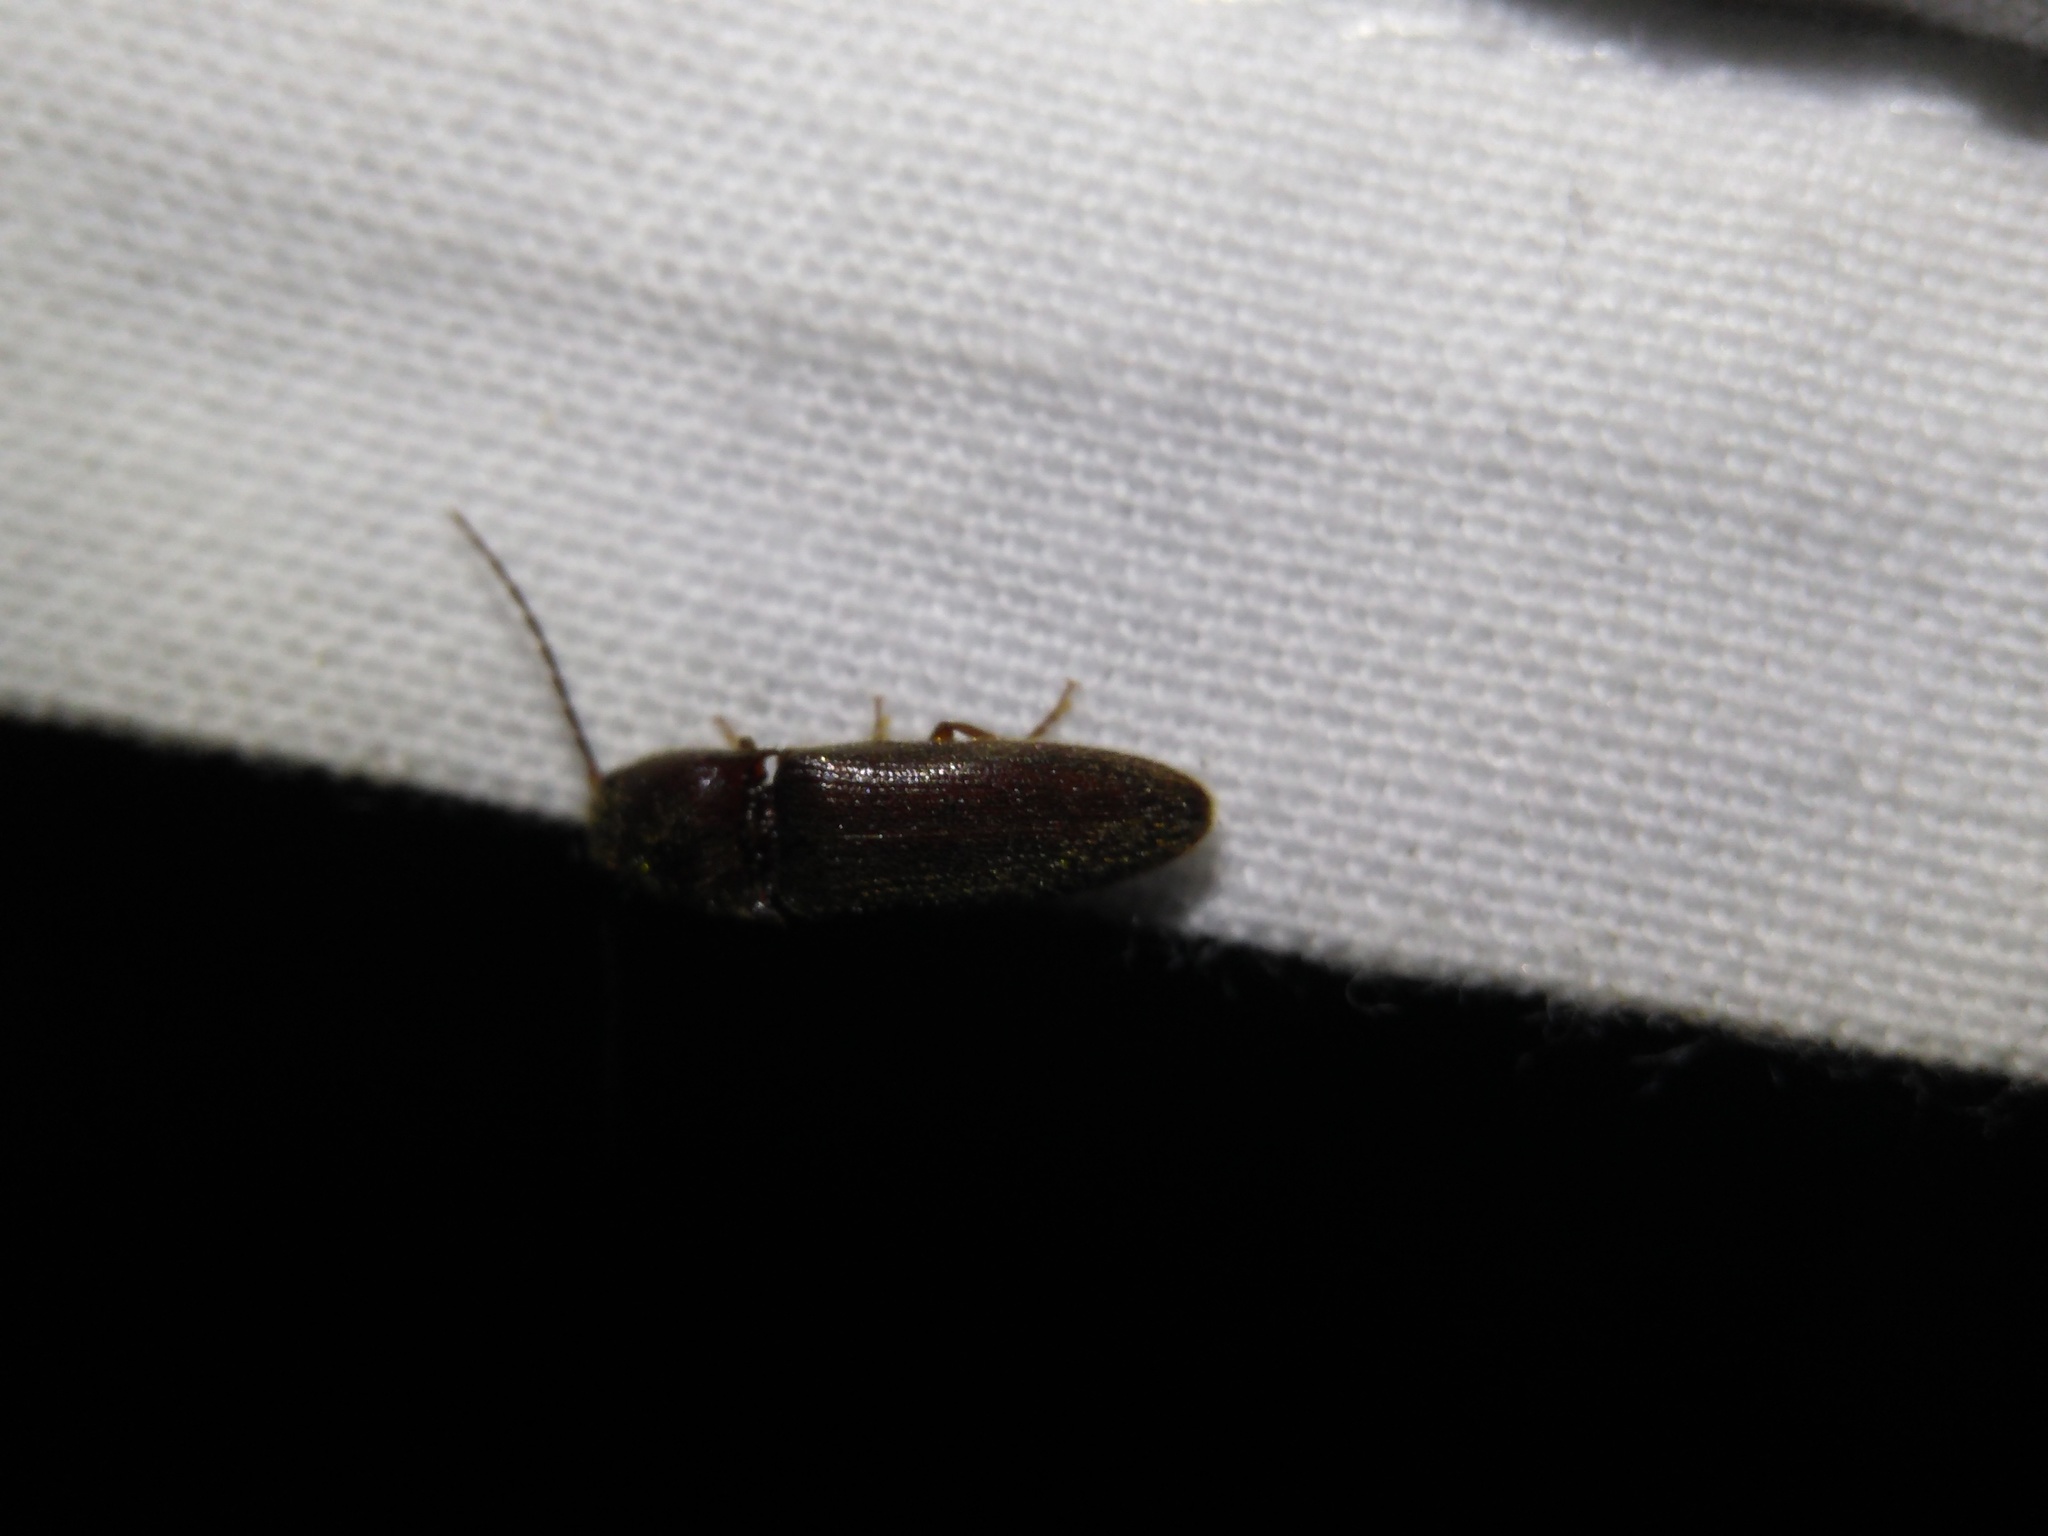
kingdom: Animalia
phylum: Arthropoda
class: Insecta
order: Coleoptera
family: Elateridae
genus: Dipropus
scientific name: Dipropus
